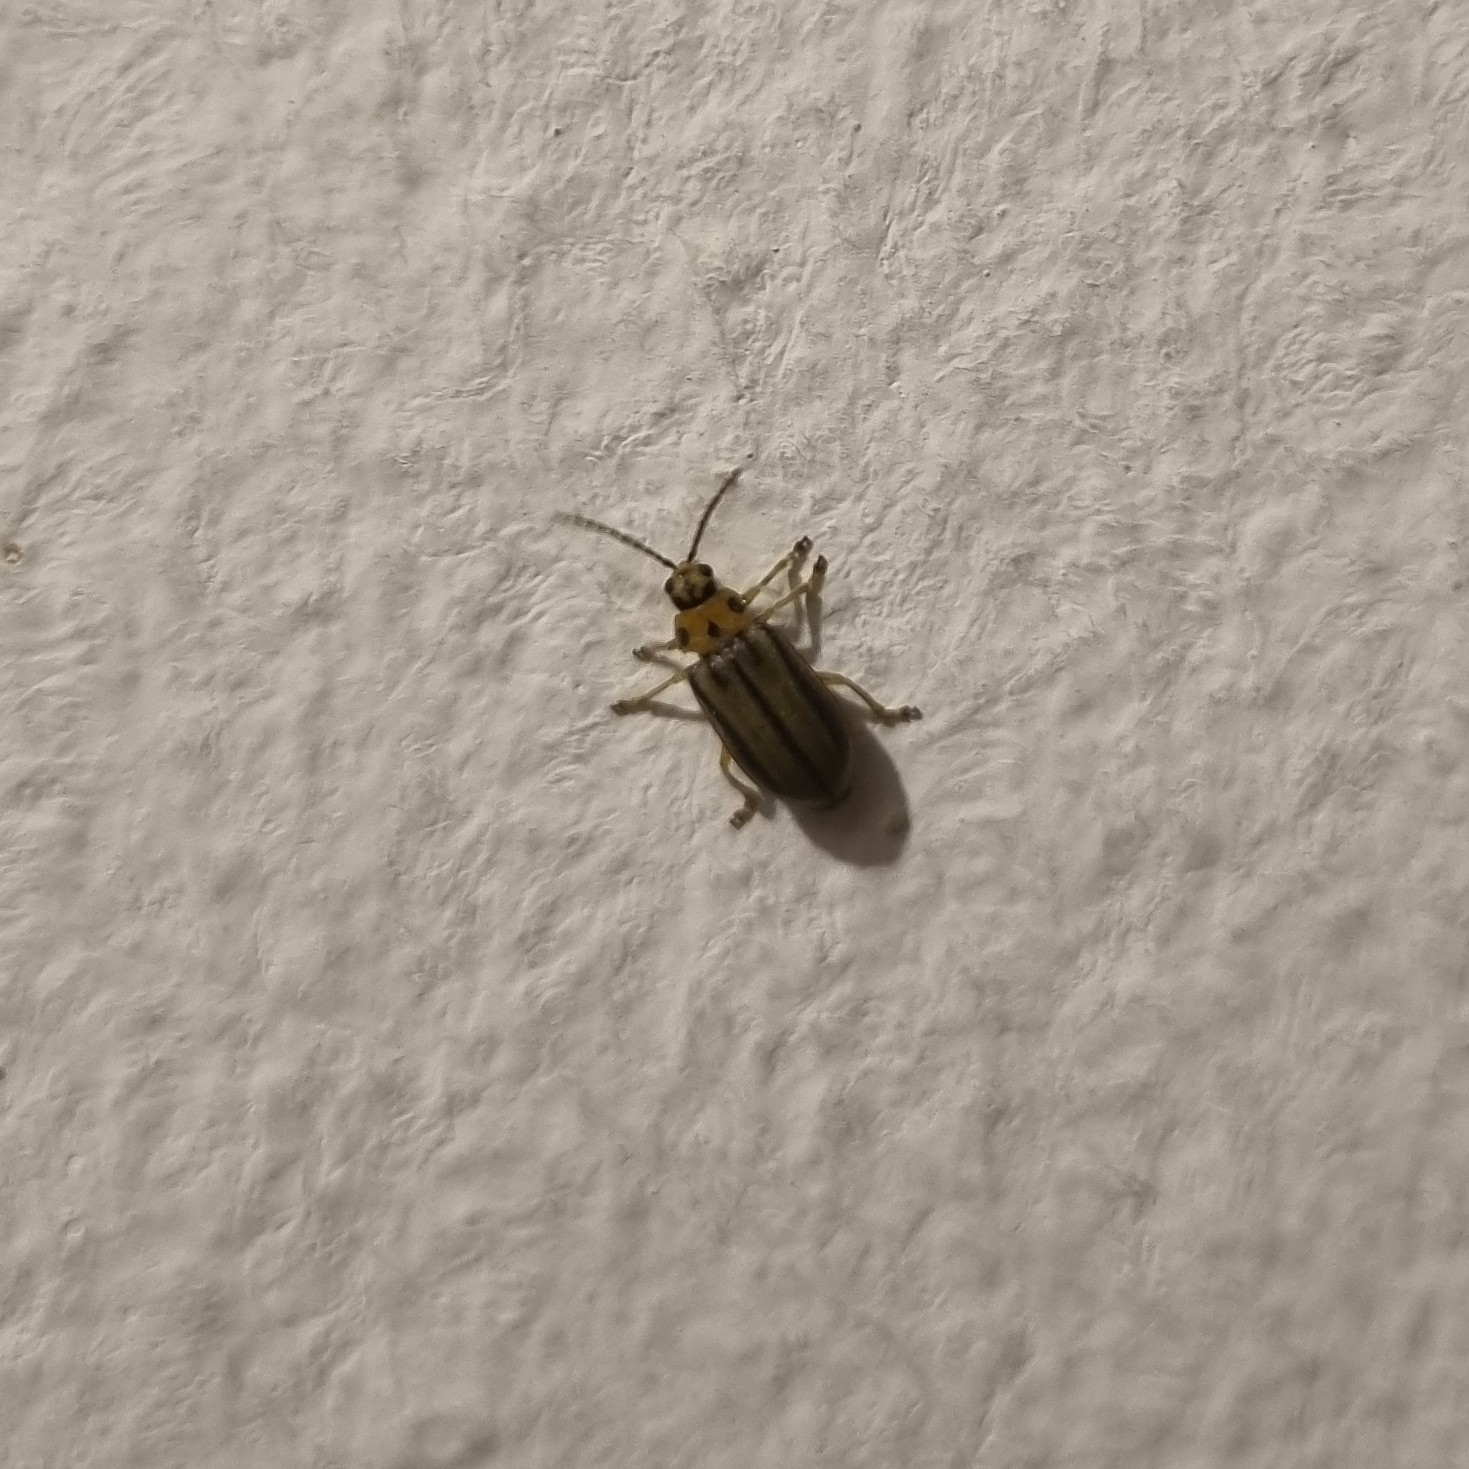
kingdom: Animalia
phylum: Arthropoda
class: Insecta
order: Coleoptera
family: Chrysomelidae
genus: Xanthogaleruca
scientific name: Xanthogaleruca luteola
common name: Elm leaf beetle
